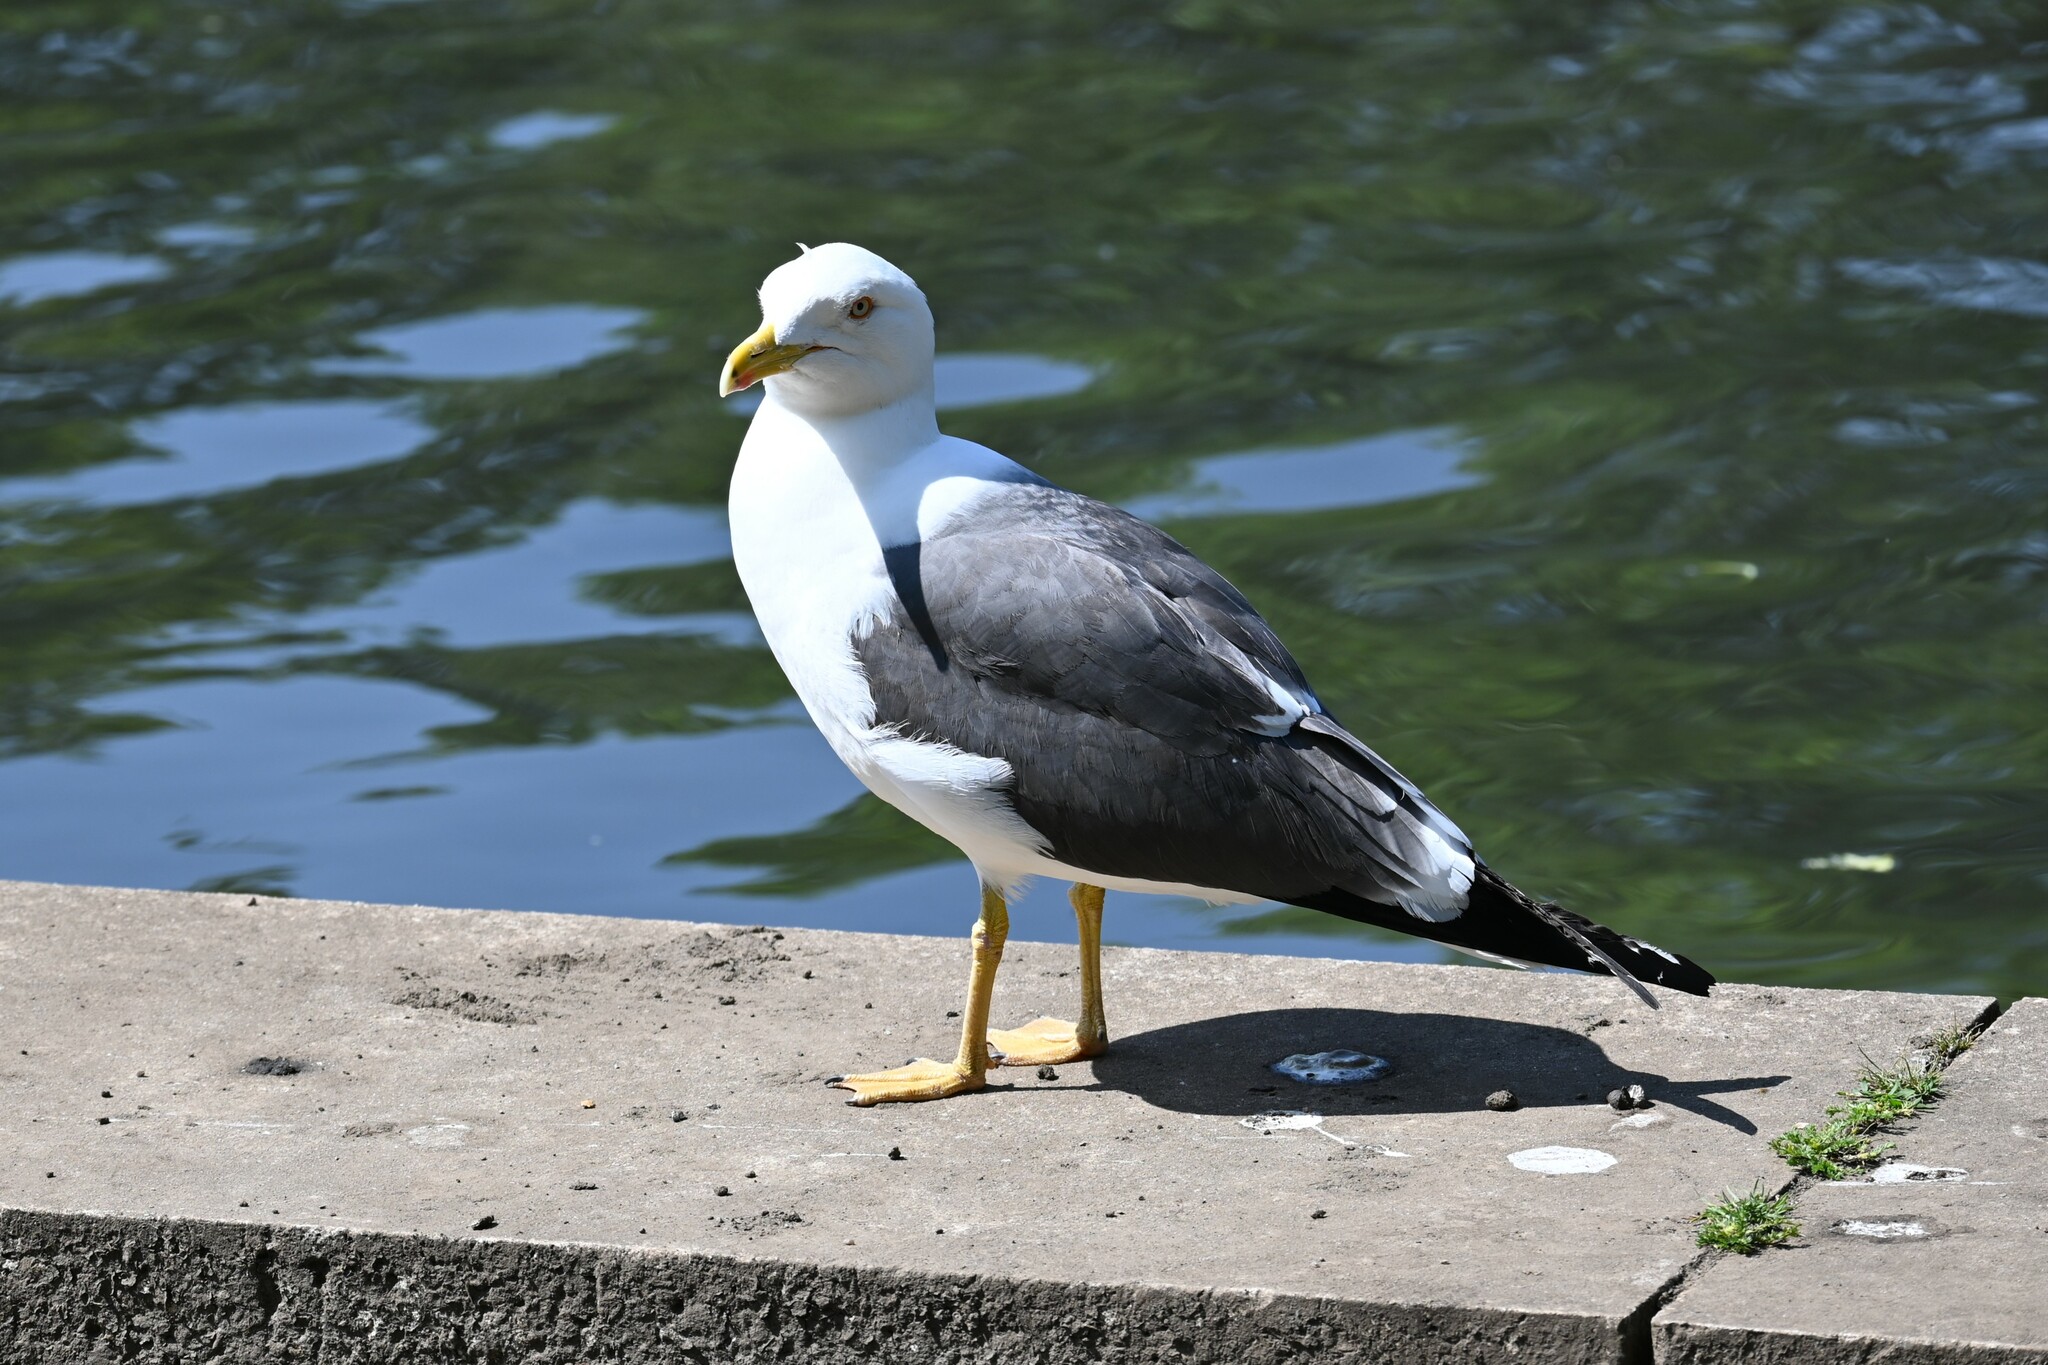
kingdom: Animalia
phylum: Chordata
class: Aves
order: Charadriiformes
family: Laridae
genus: Larus
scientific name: Larus fuscus
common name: Lesser black-backed gull
